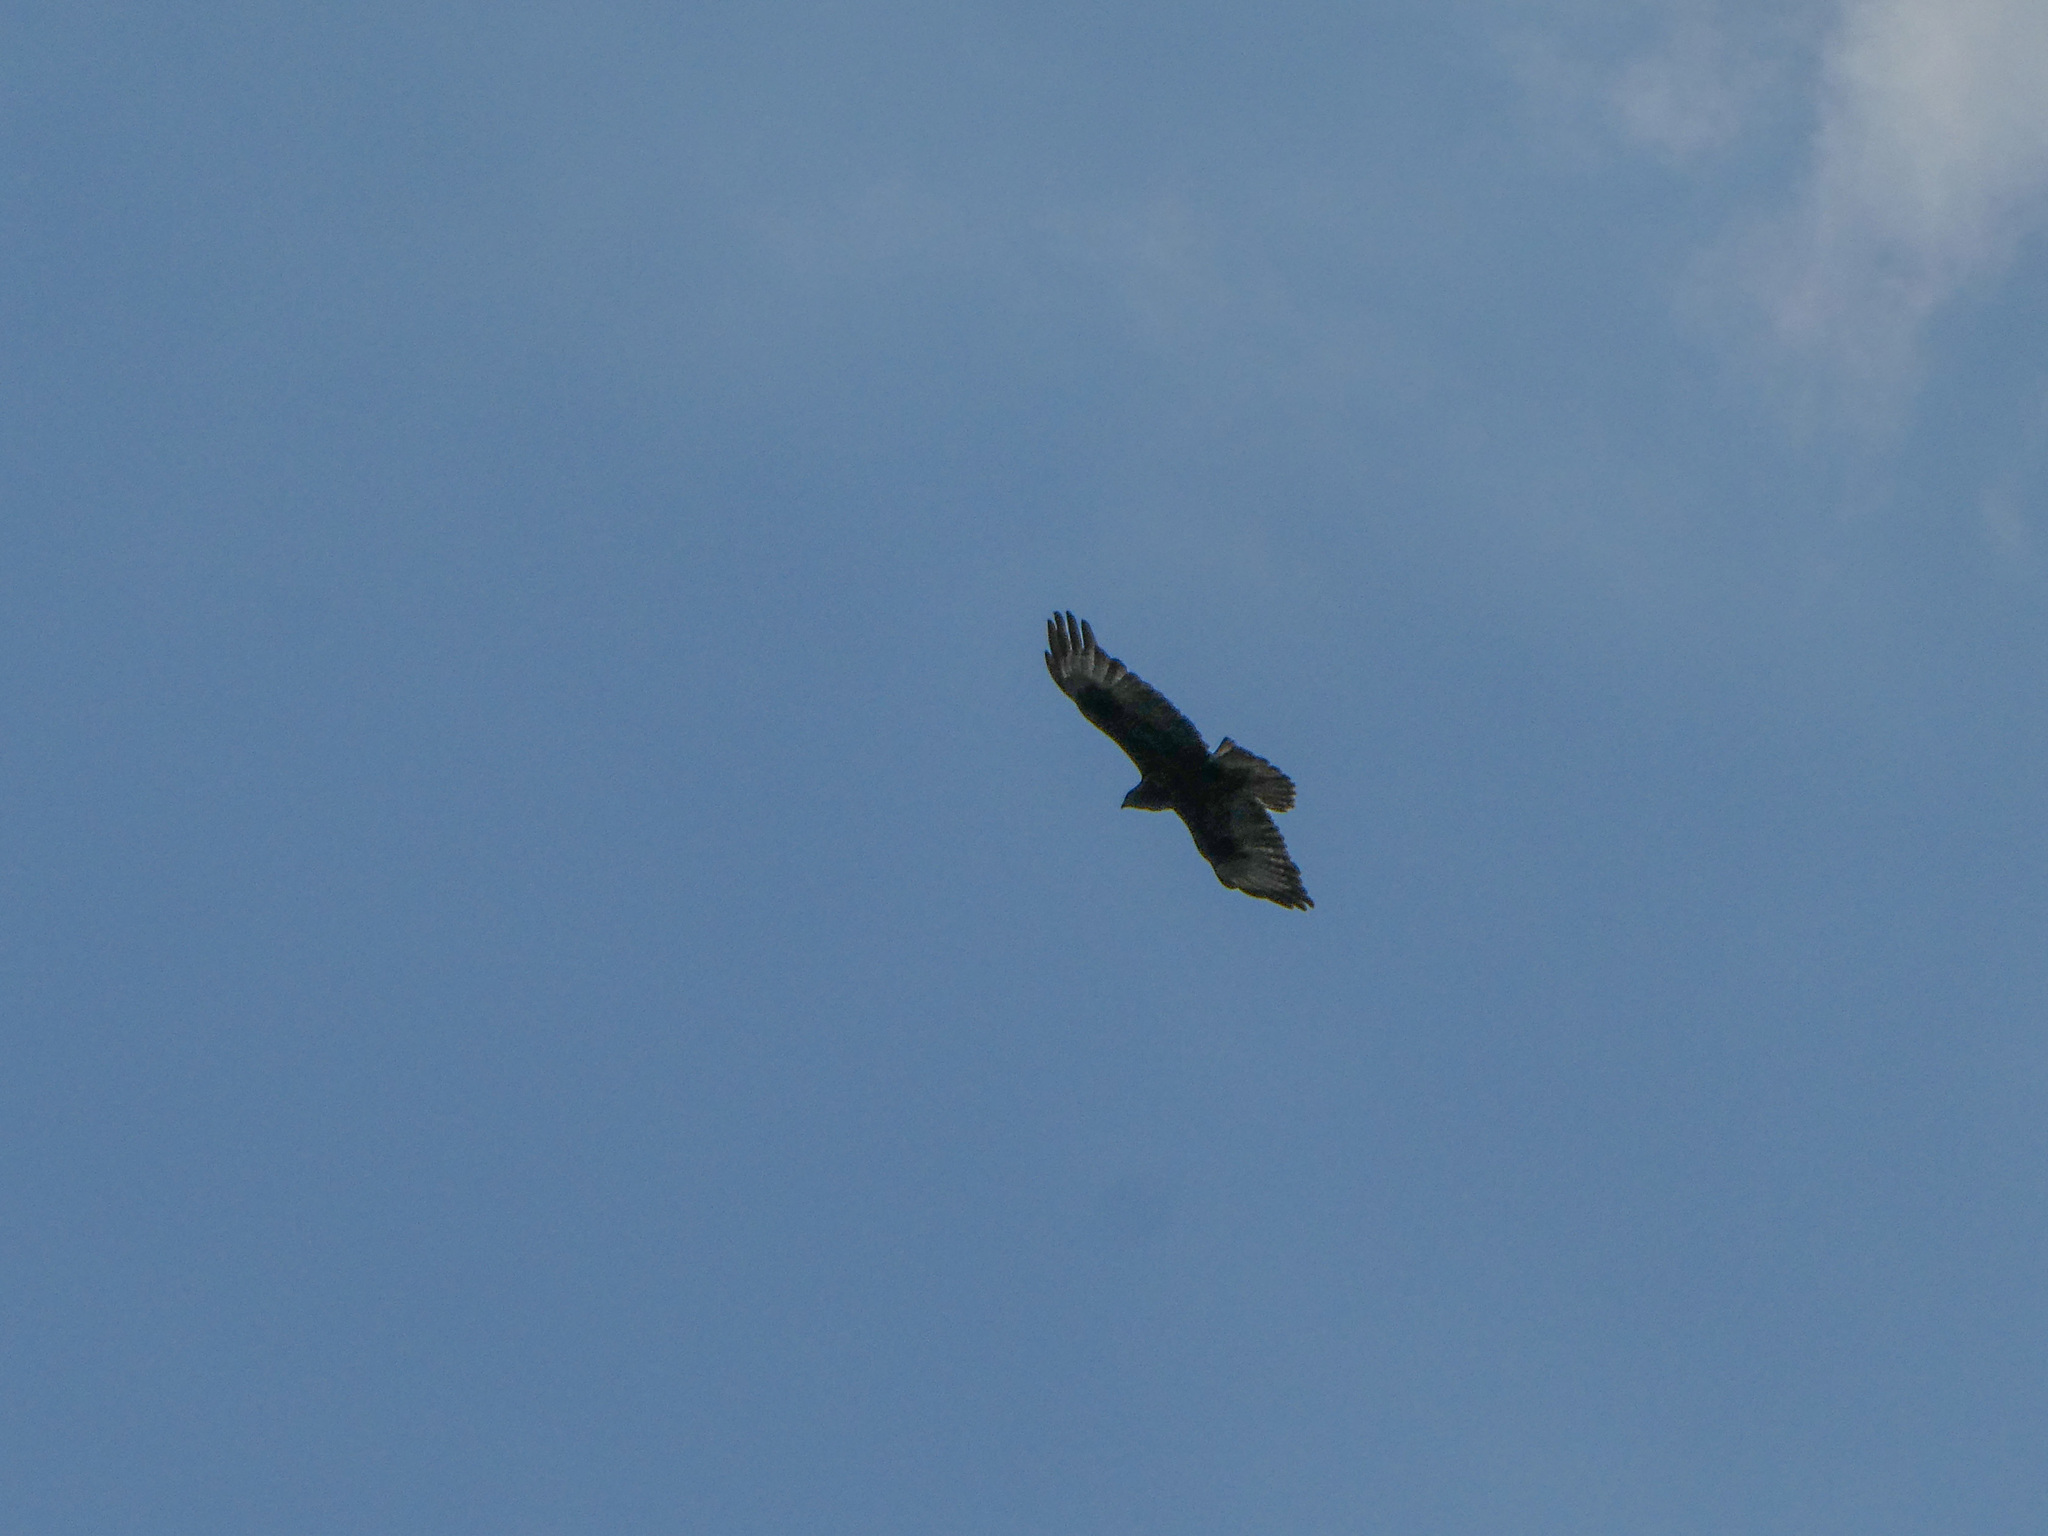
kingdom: Animalia
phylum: Chordata
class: Aves
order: Accipitriformes
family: Accipitridae
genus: Buteo
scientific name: Buteo buteo
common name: Common buzzard
